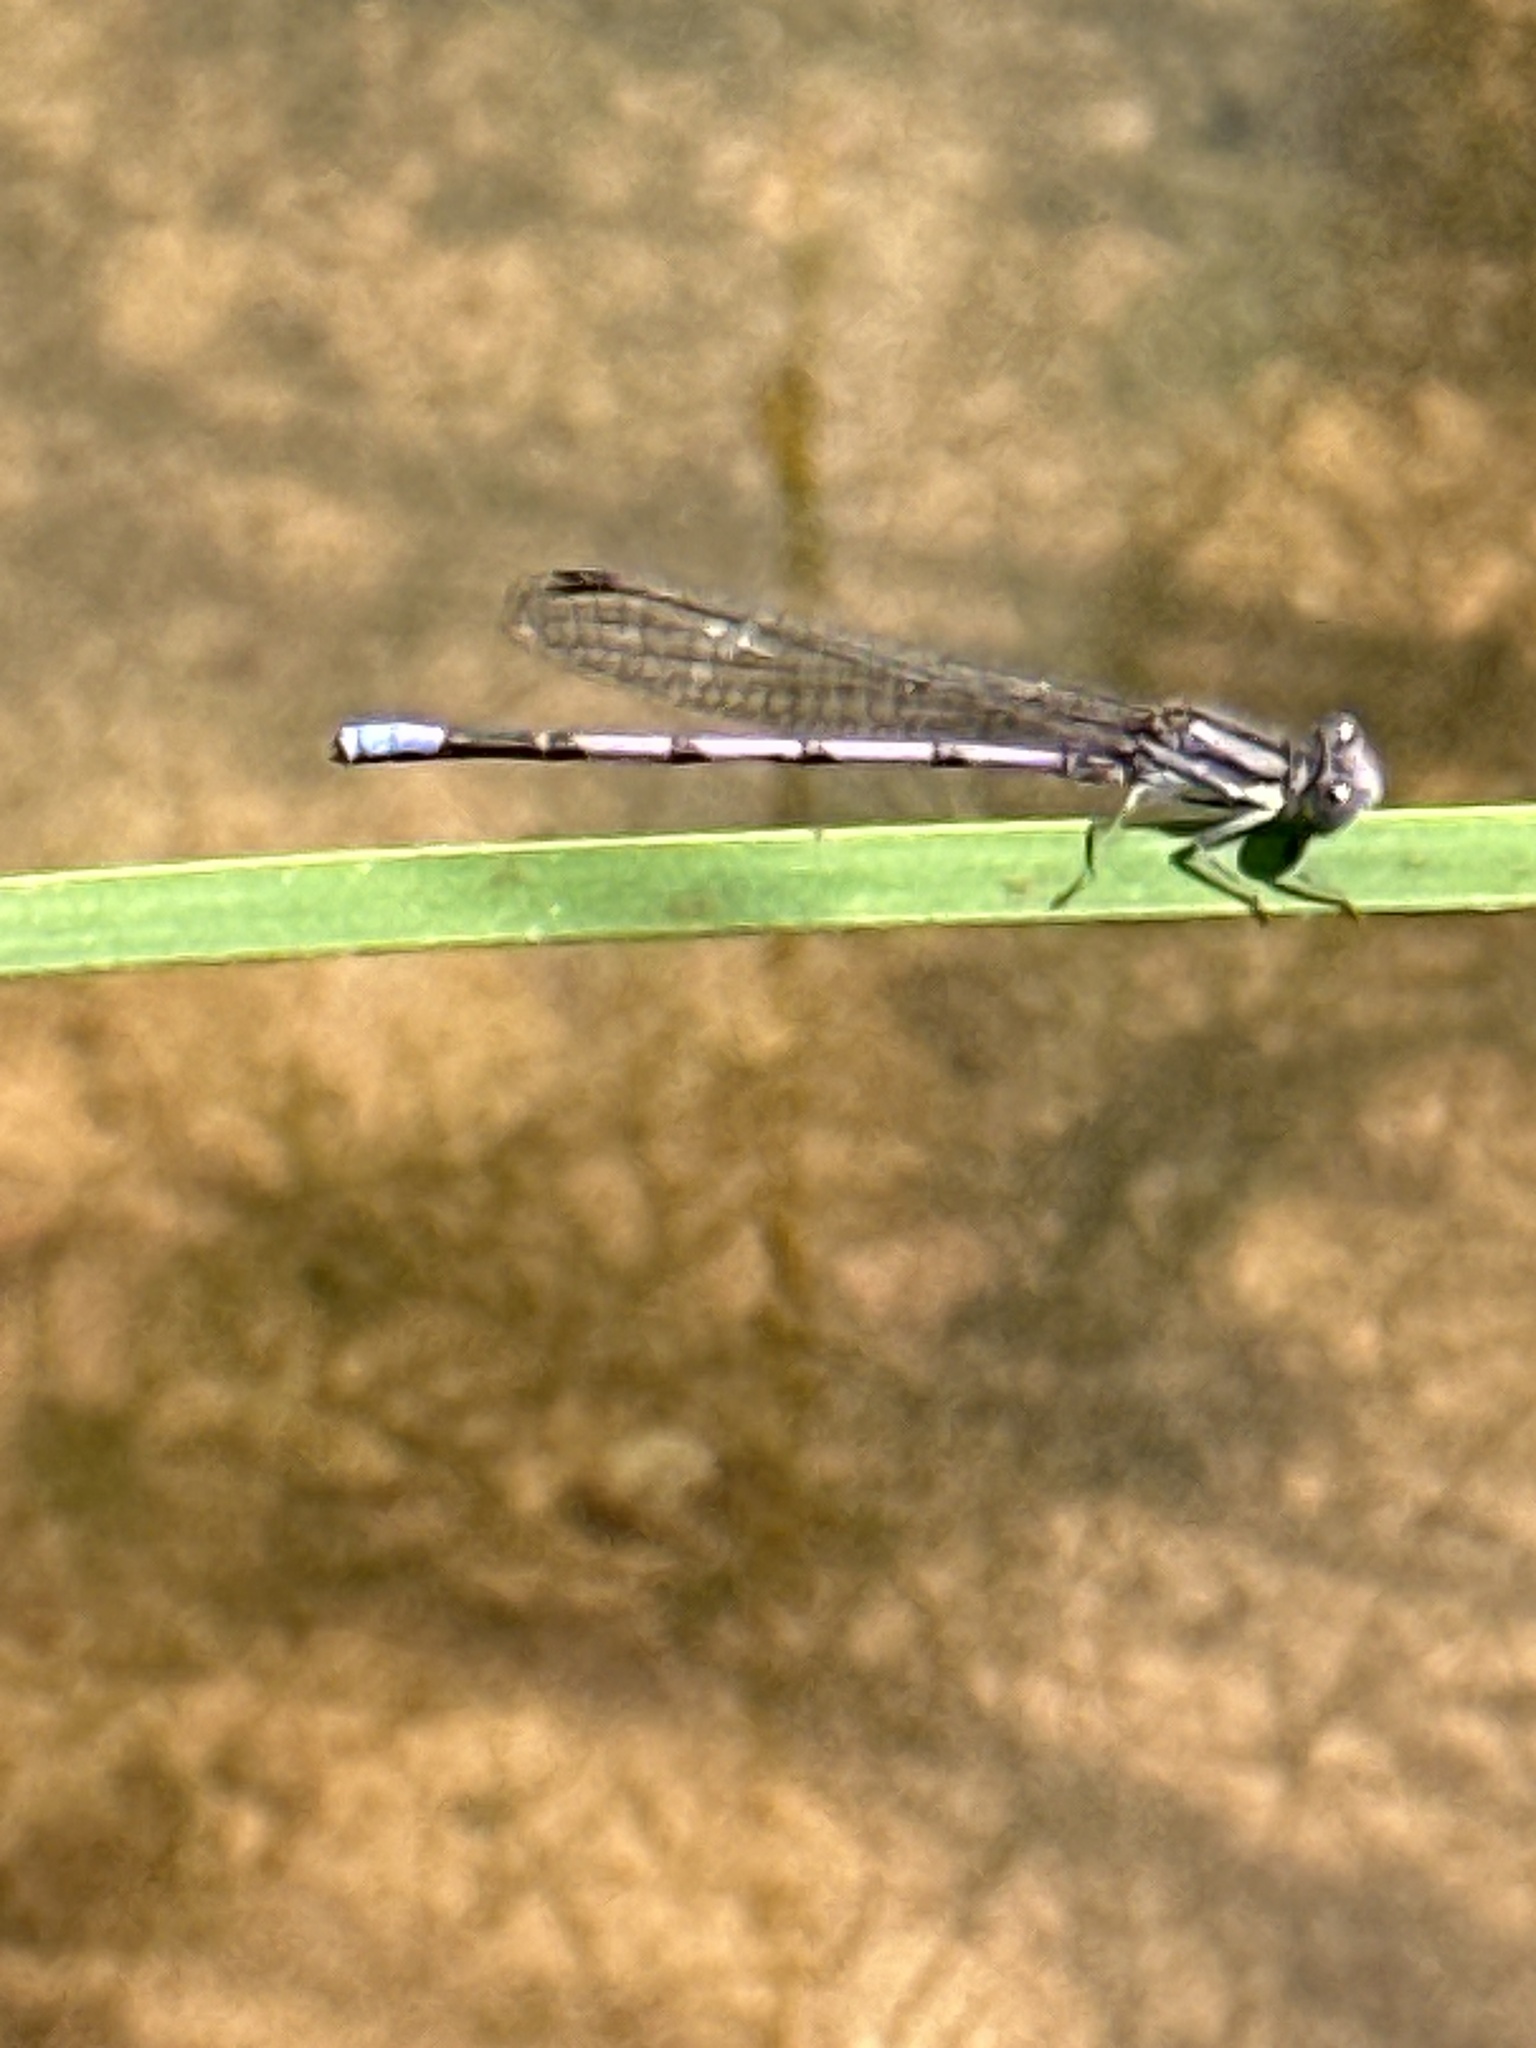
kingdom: Animalia
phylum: Arthropoda
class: Insecta
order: Odonata
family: Coenagrionidae
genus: Argia
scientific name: Argia fumipennis
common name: Variable dancer
